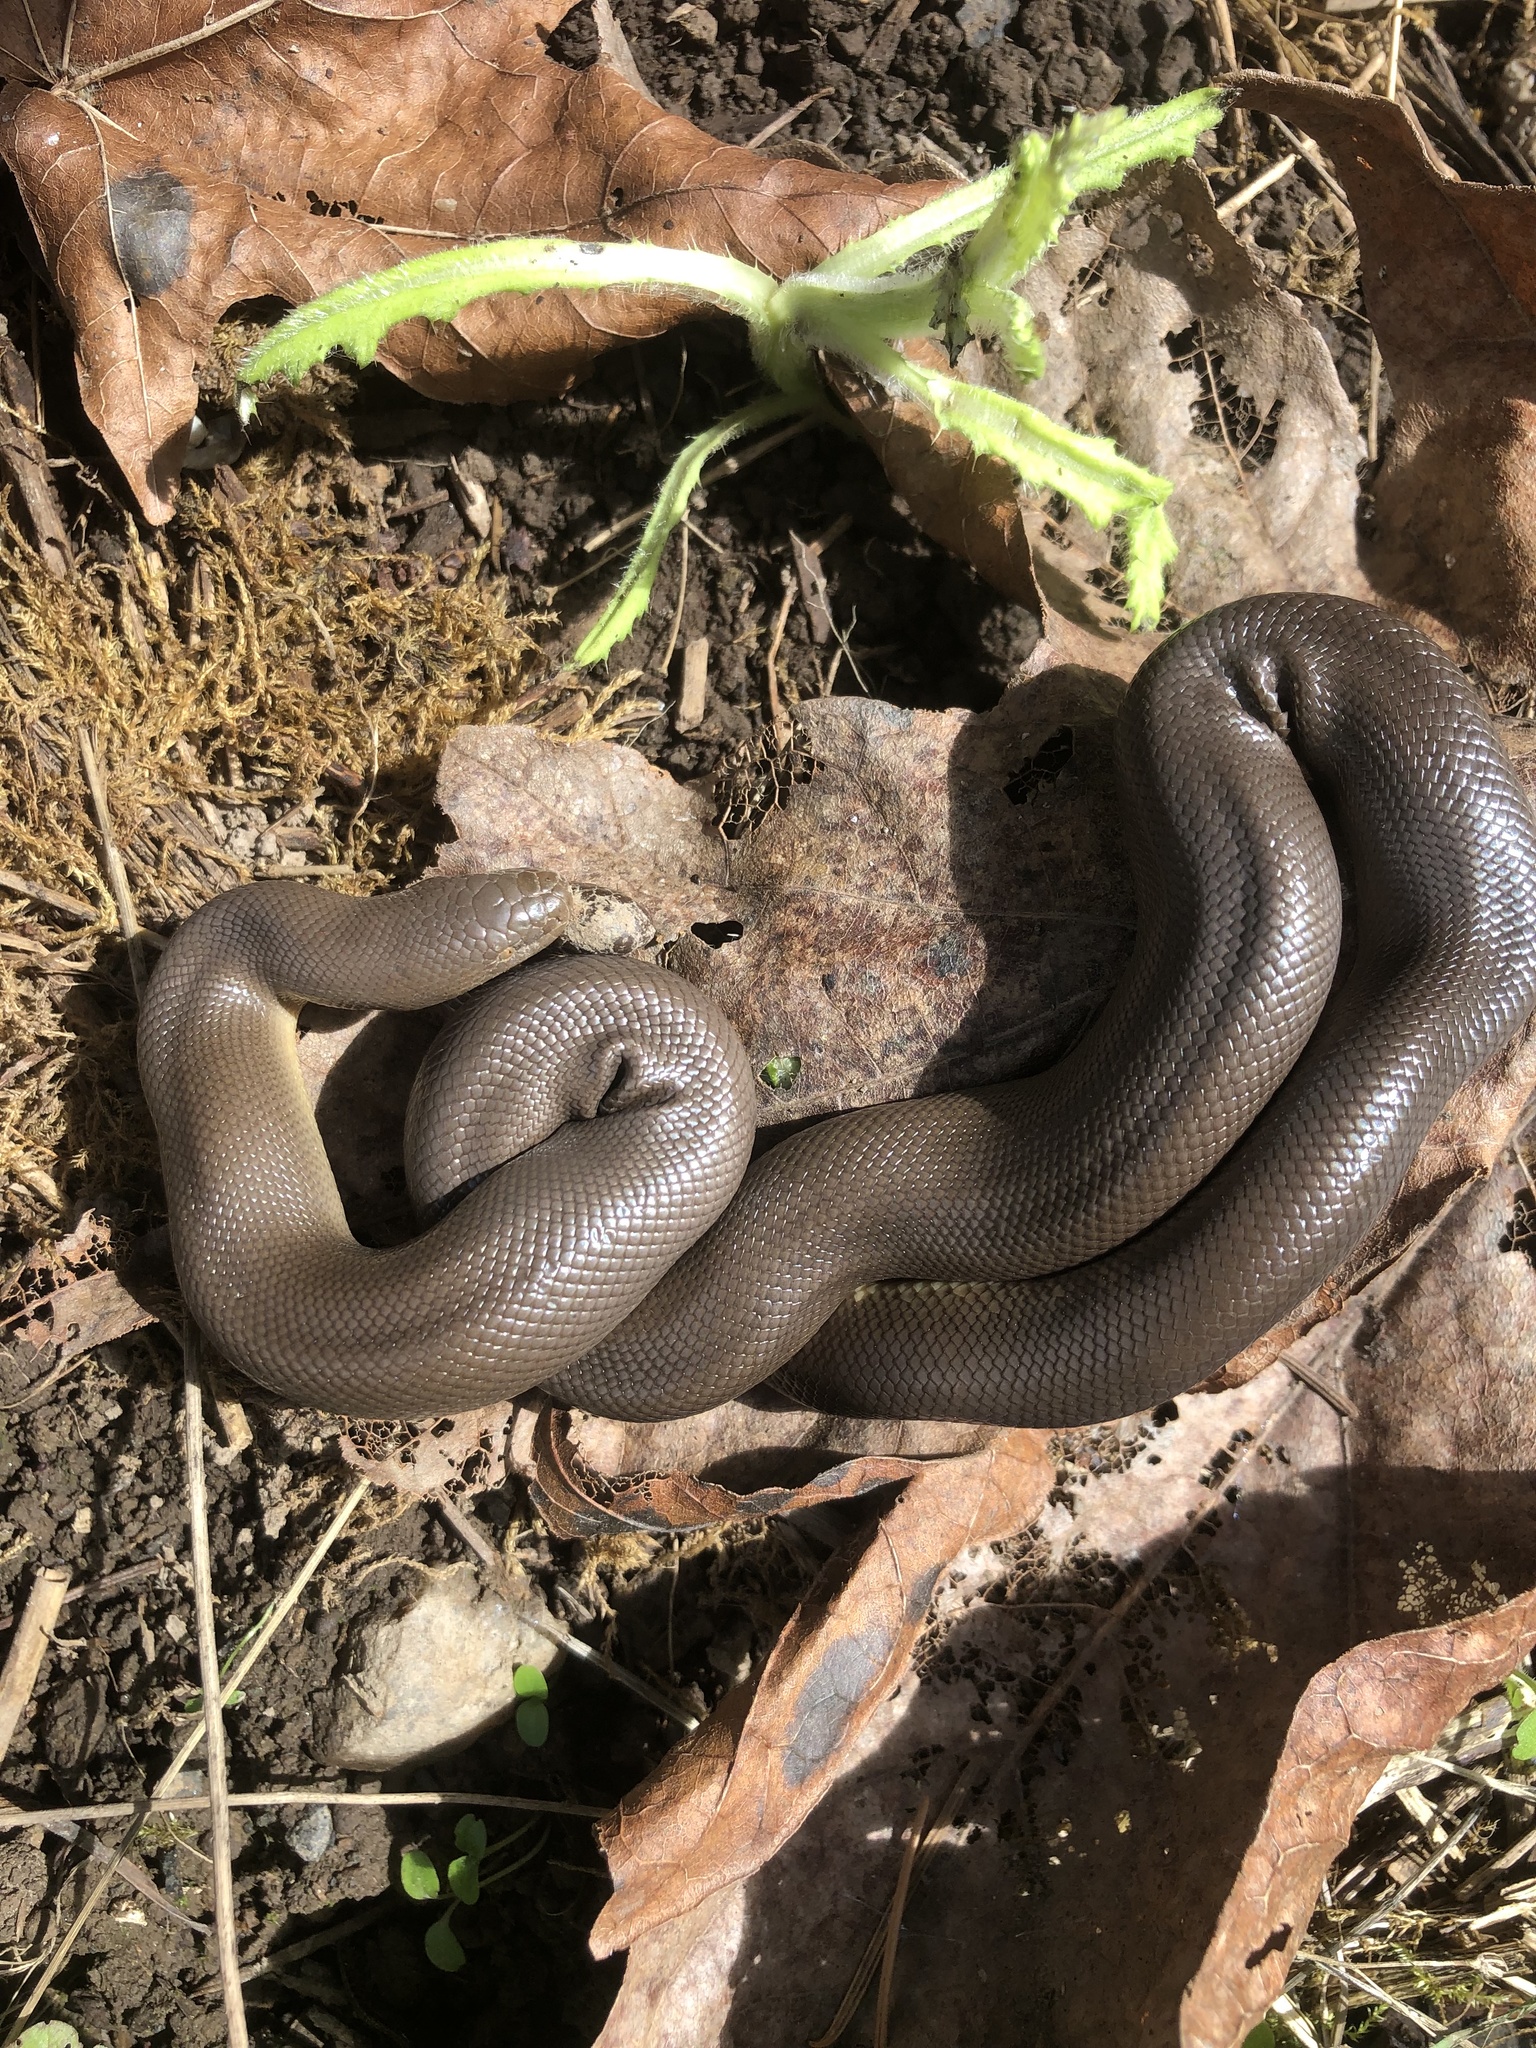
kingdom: Animalia
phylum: Chordata
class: Squamata
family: Boidae
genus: Charina
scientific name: Charina bottae
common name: Northern rubber boa
